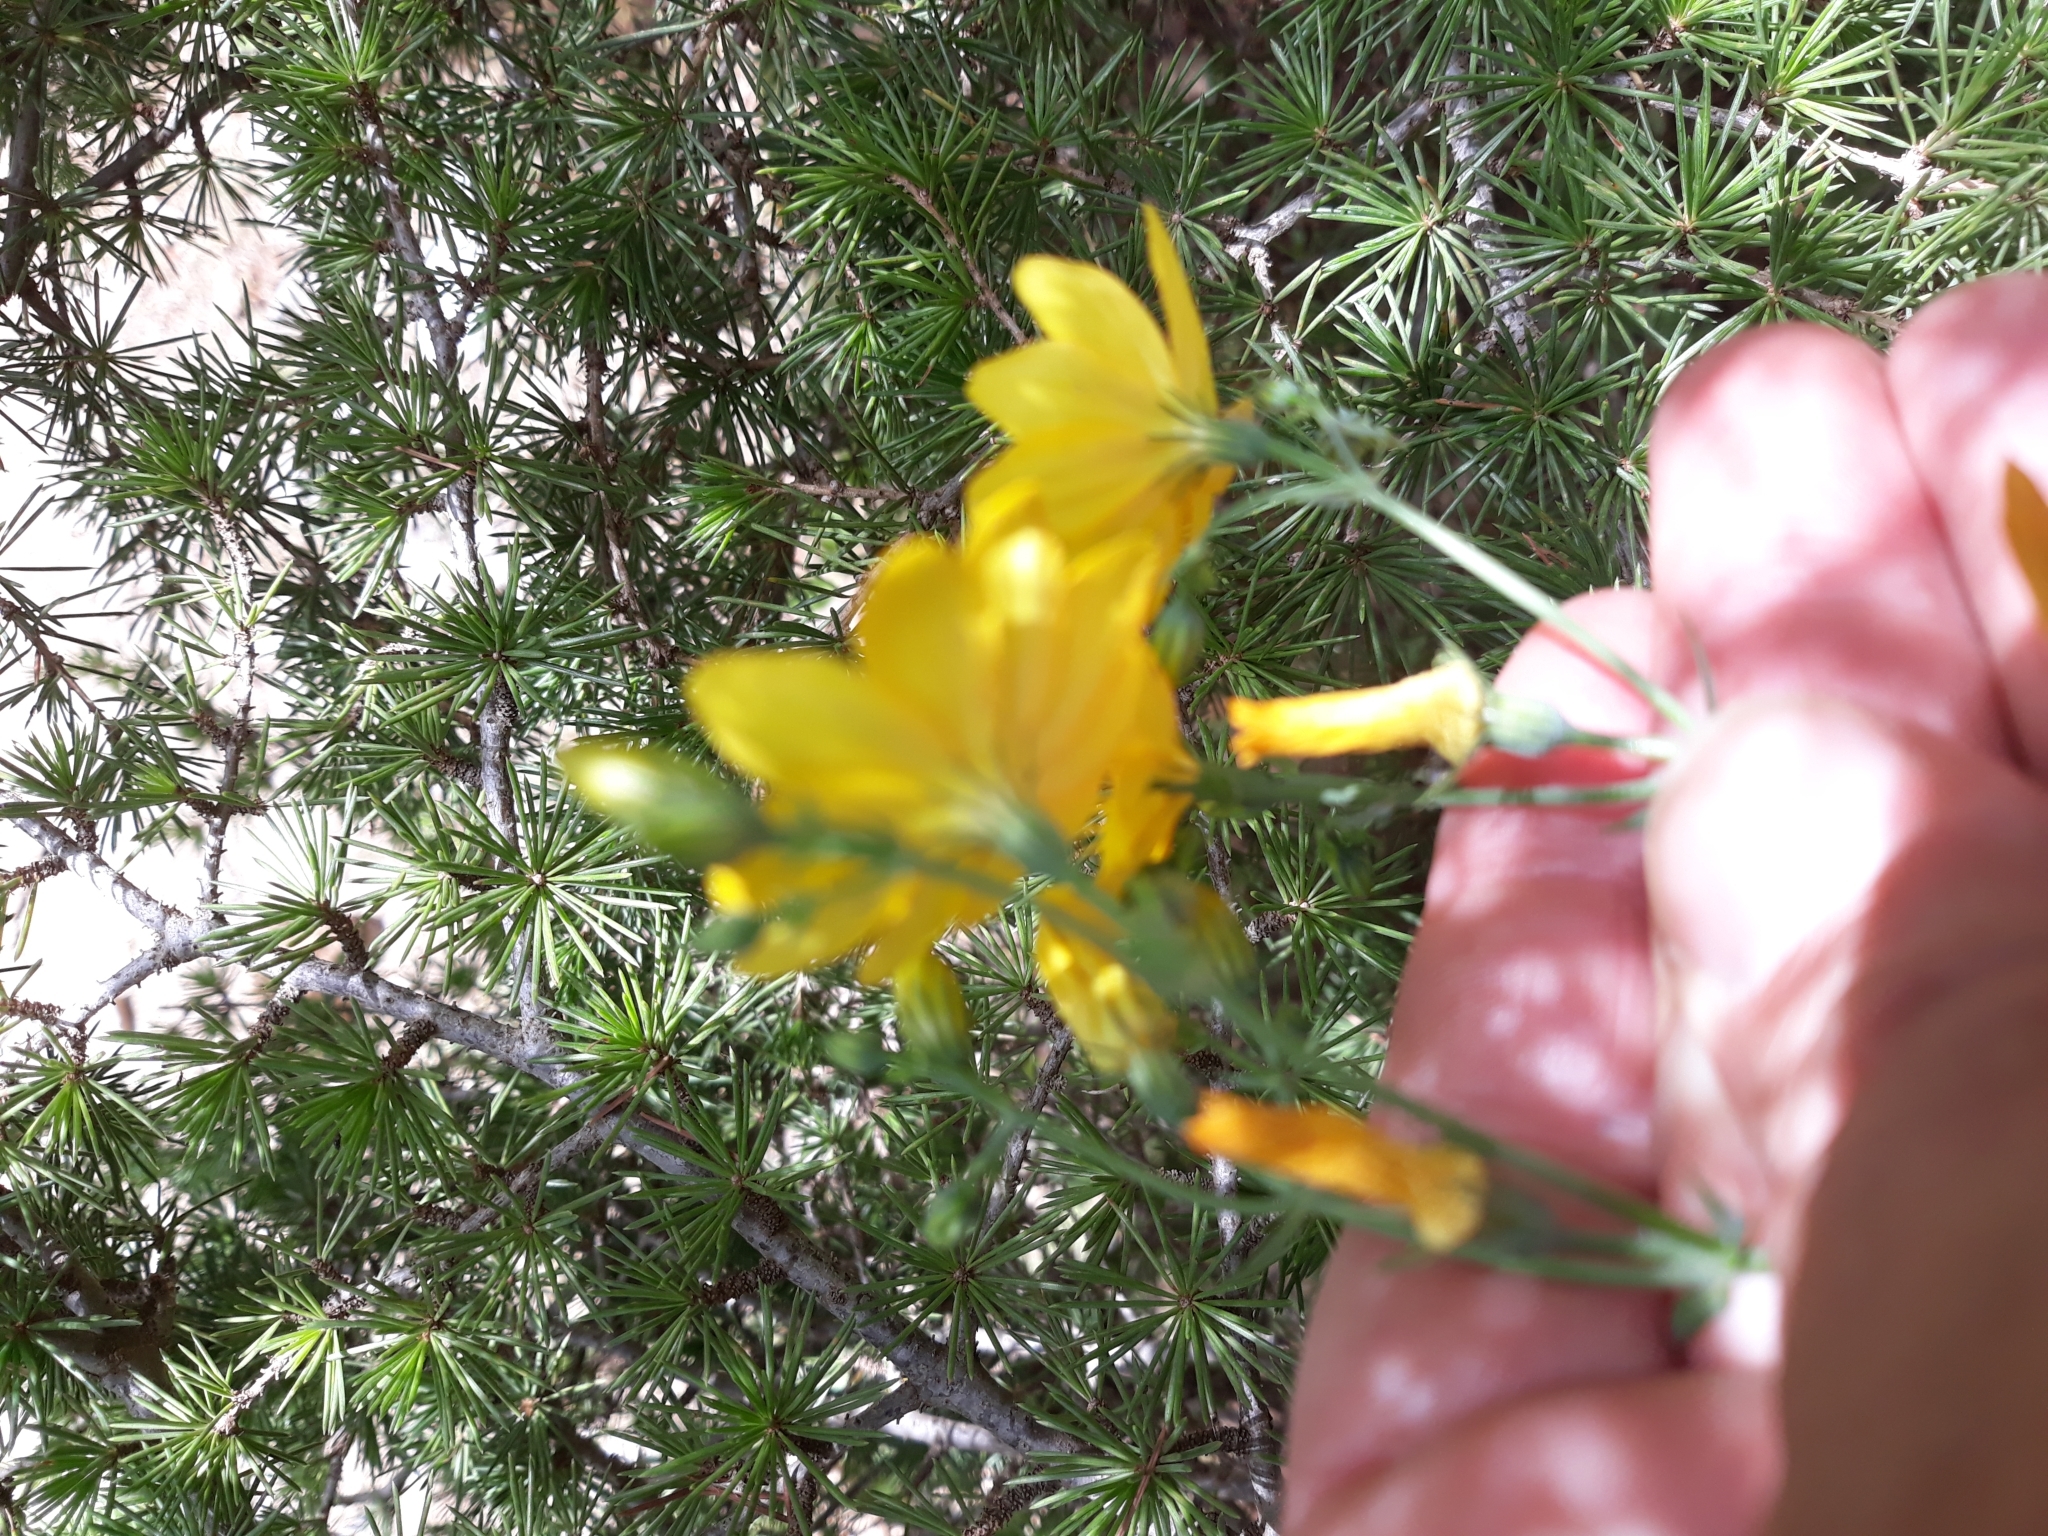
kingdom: Plantae
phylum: Tracheophyta
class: Magnoliopsida
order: Gentianales
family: Gentianaceae
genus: Blackstonia
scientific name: Blackstonia grandiflora
